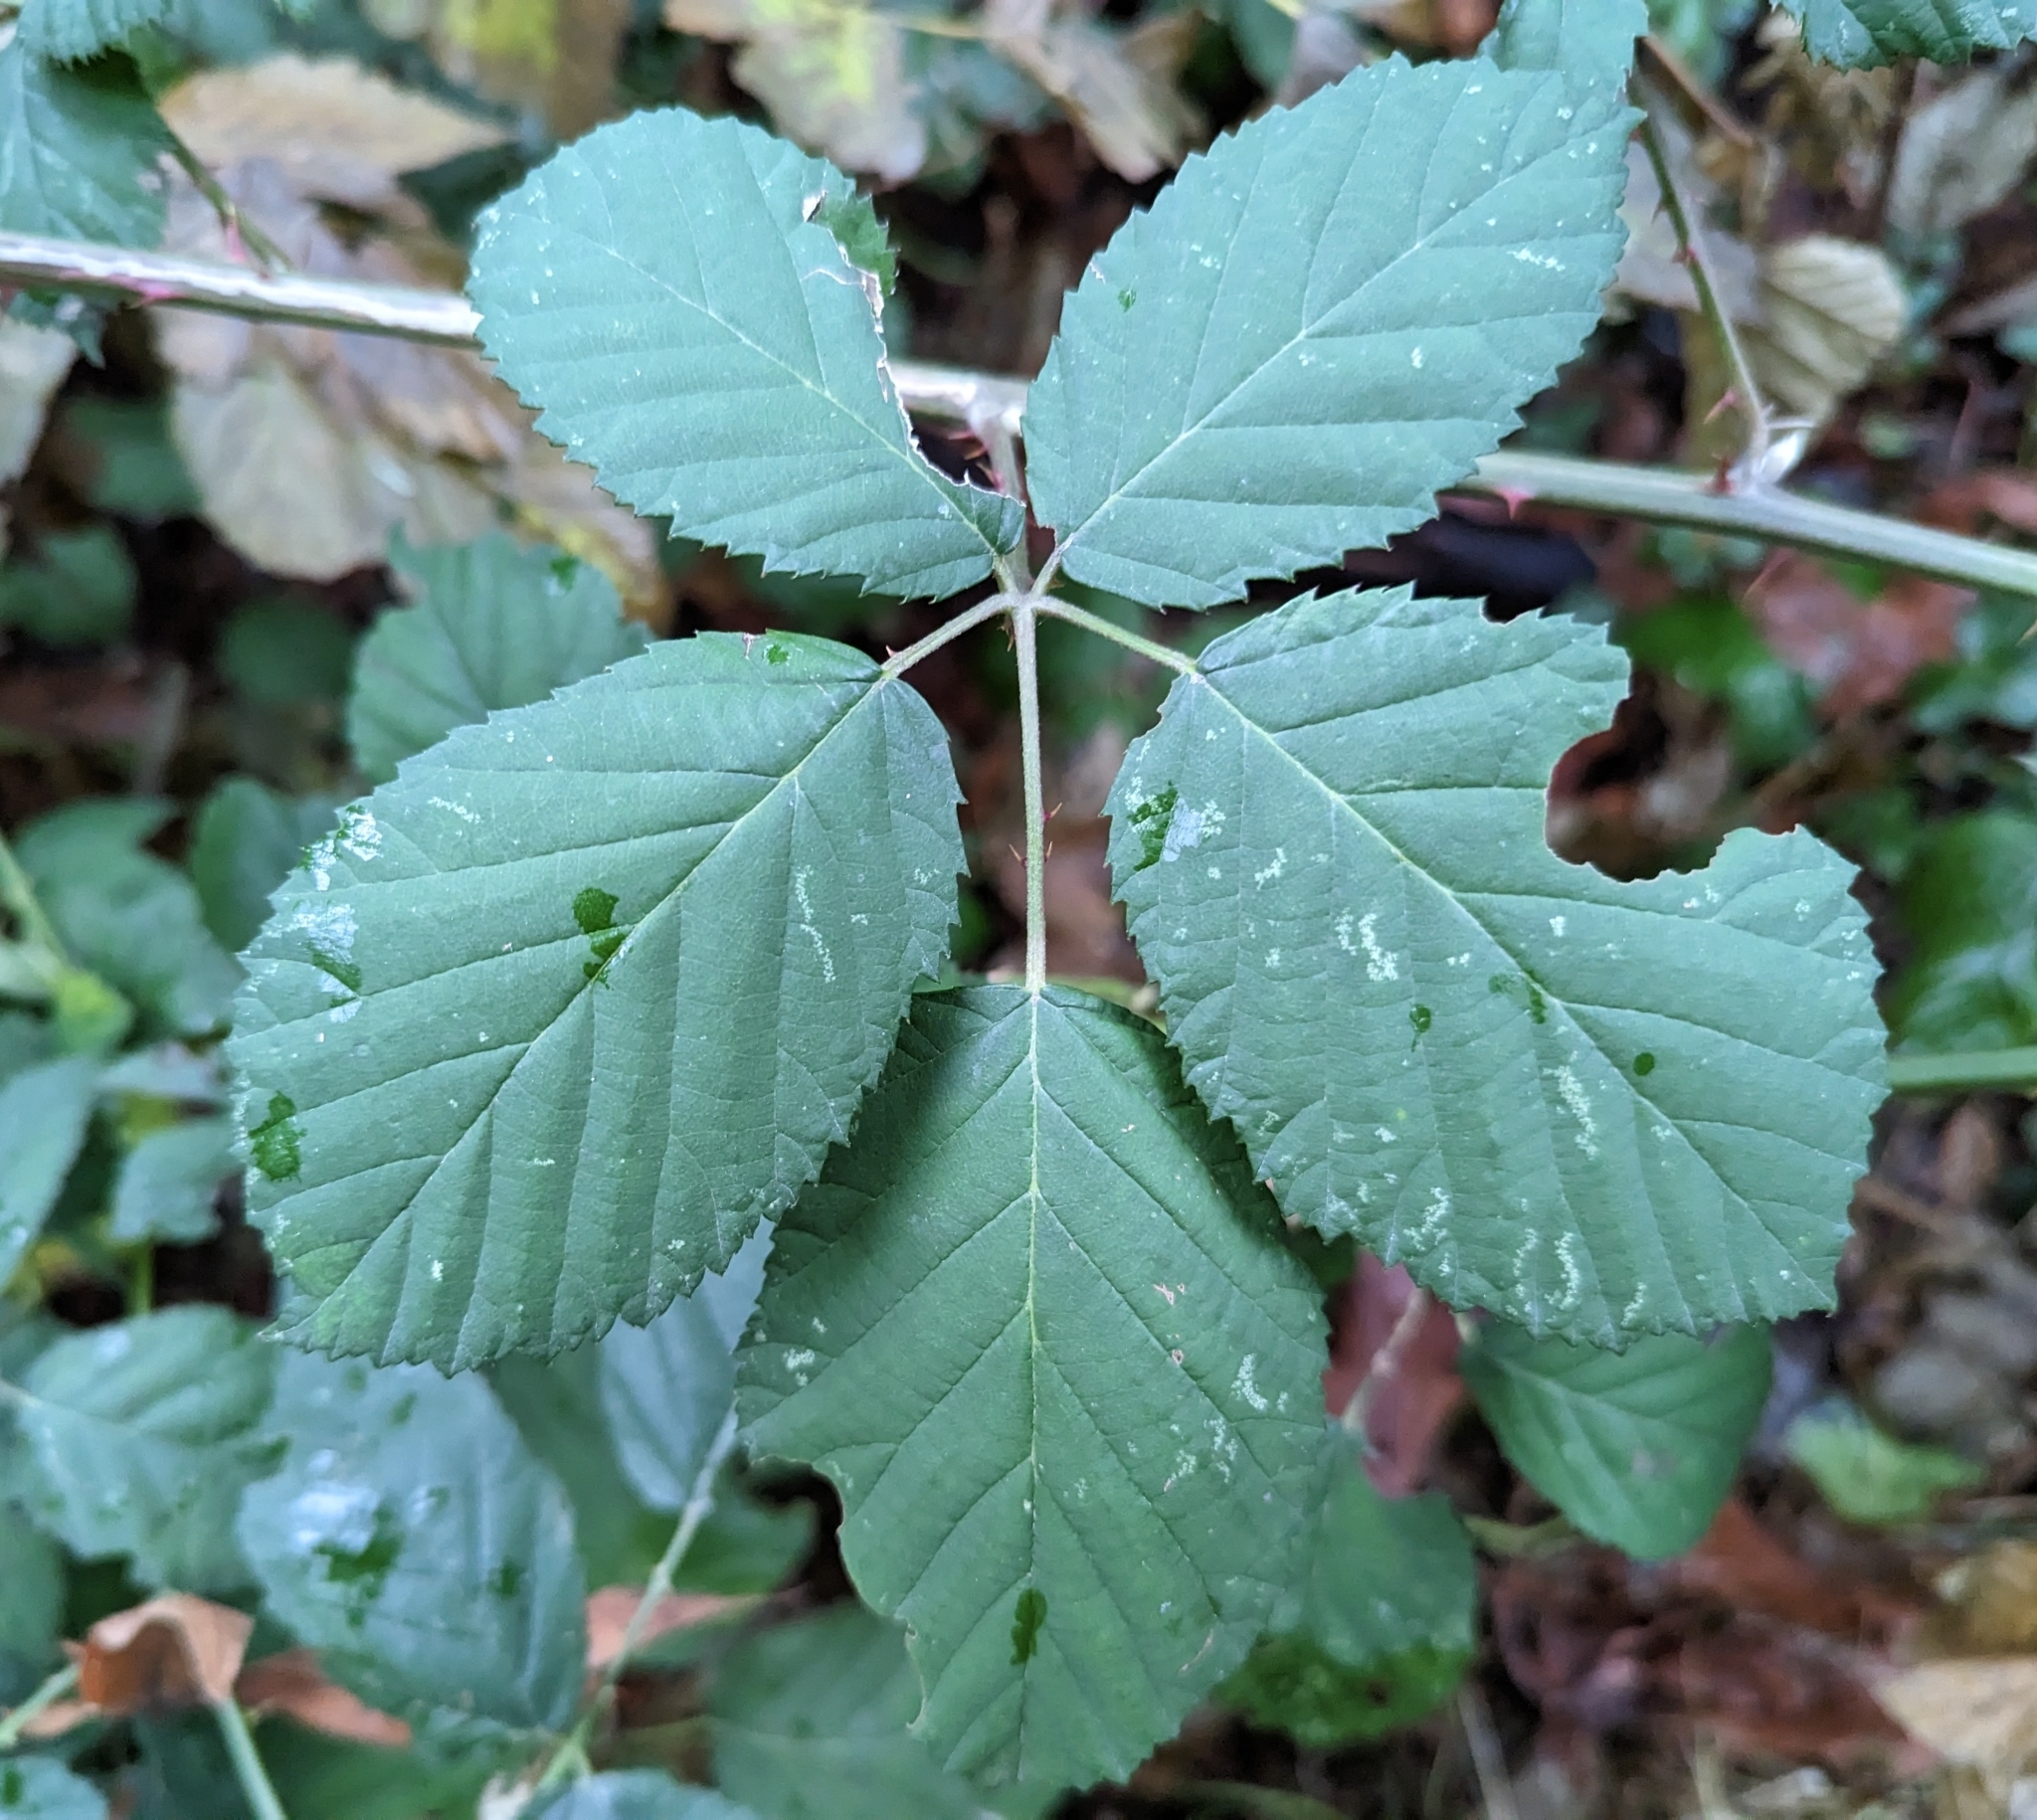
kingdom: Plantae
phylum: Tracheophyta
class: Magnoliopsida
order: Rosales
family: Rosaceae
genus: Rubus
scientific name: Rubus bifrons
